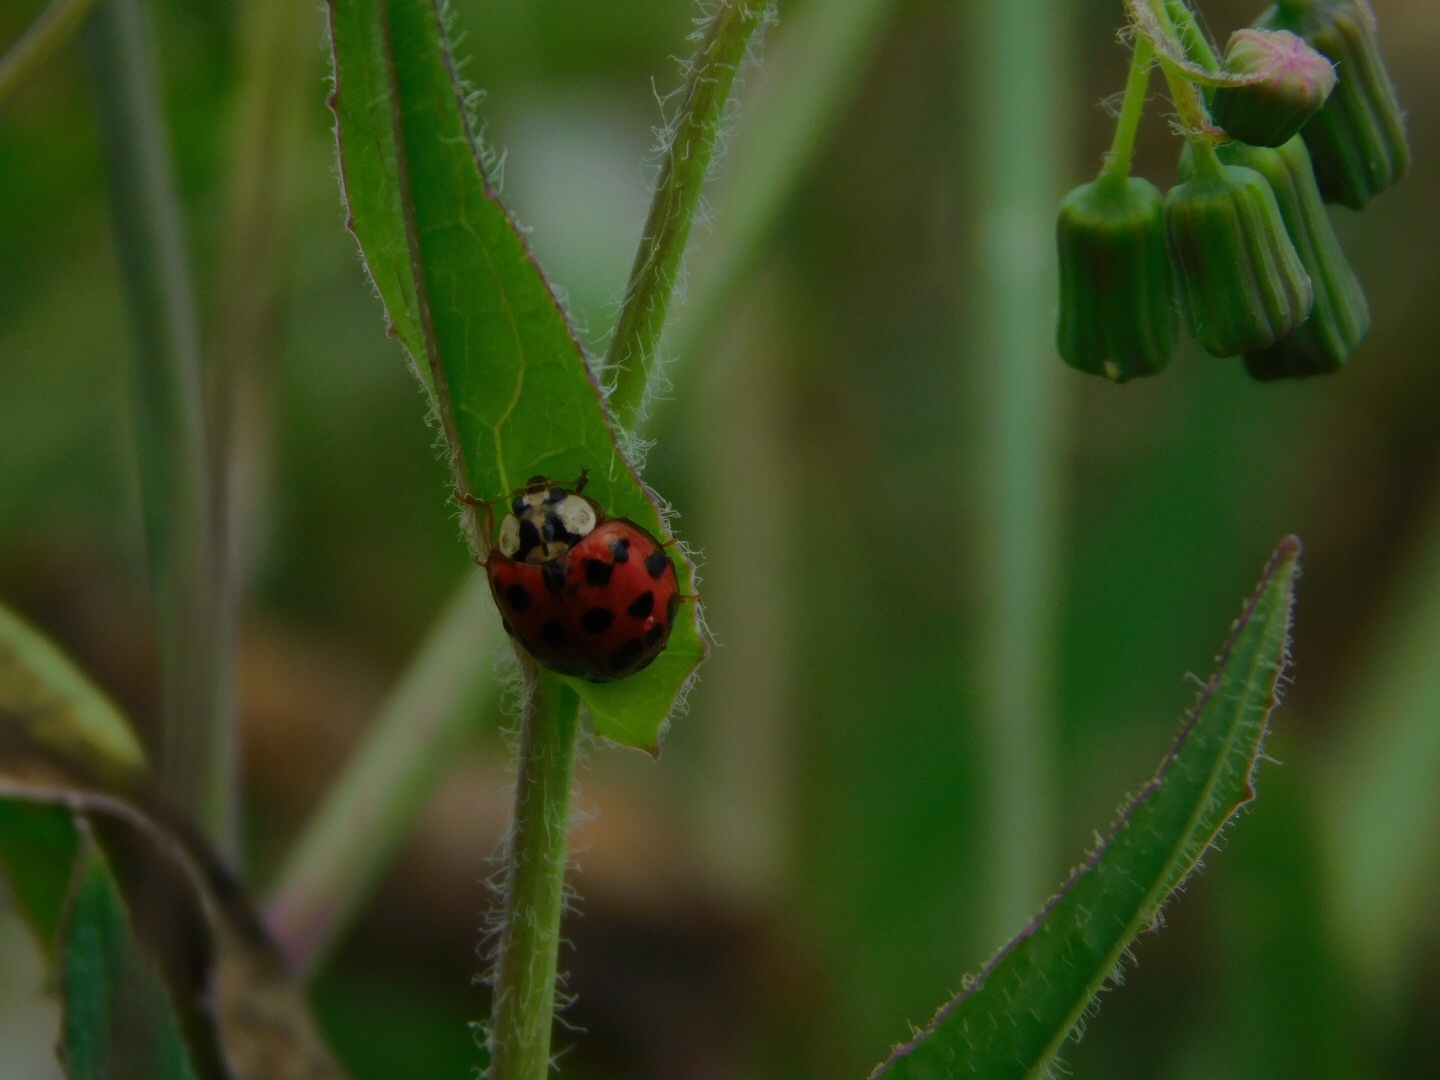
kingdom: Animalia
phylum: Arthropoda
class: Insecta
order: Coleoptera
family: Coccinellidae
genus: Harmonia
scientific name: Harmonia axyridis
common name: Harlequin ladybird
